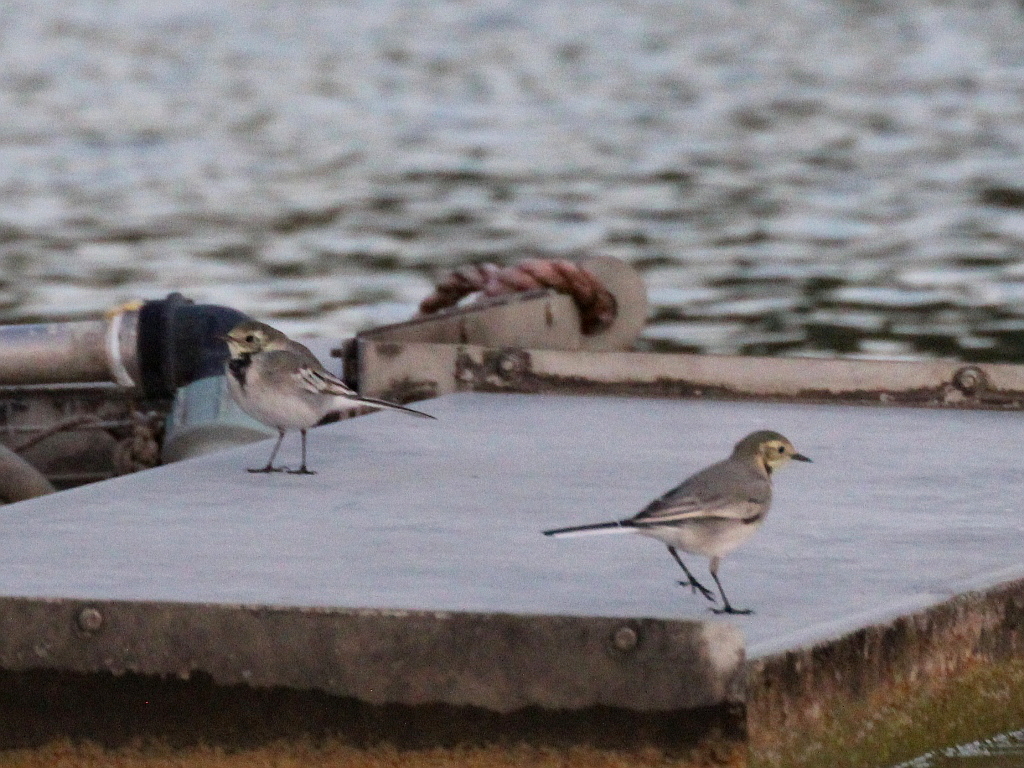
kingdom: Animalia
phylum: Chordata
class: Aves
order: Passeriformes
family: Motacillidae
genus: Motacilla
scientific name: Motacilla alba
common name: White wagtail
